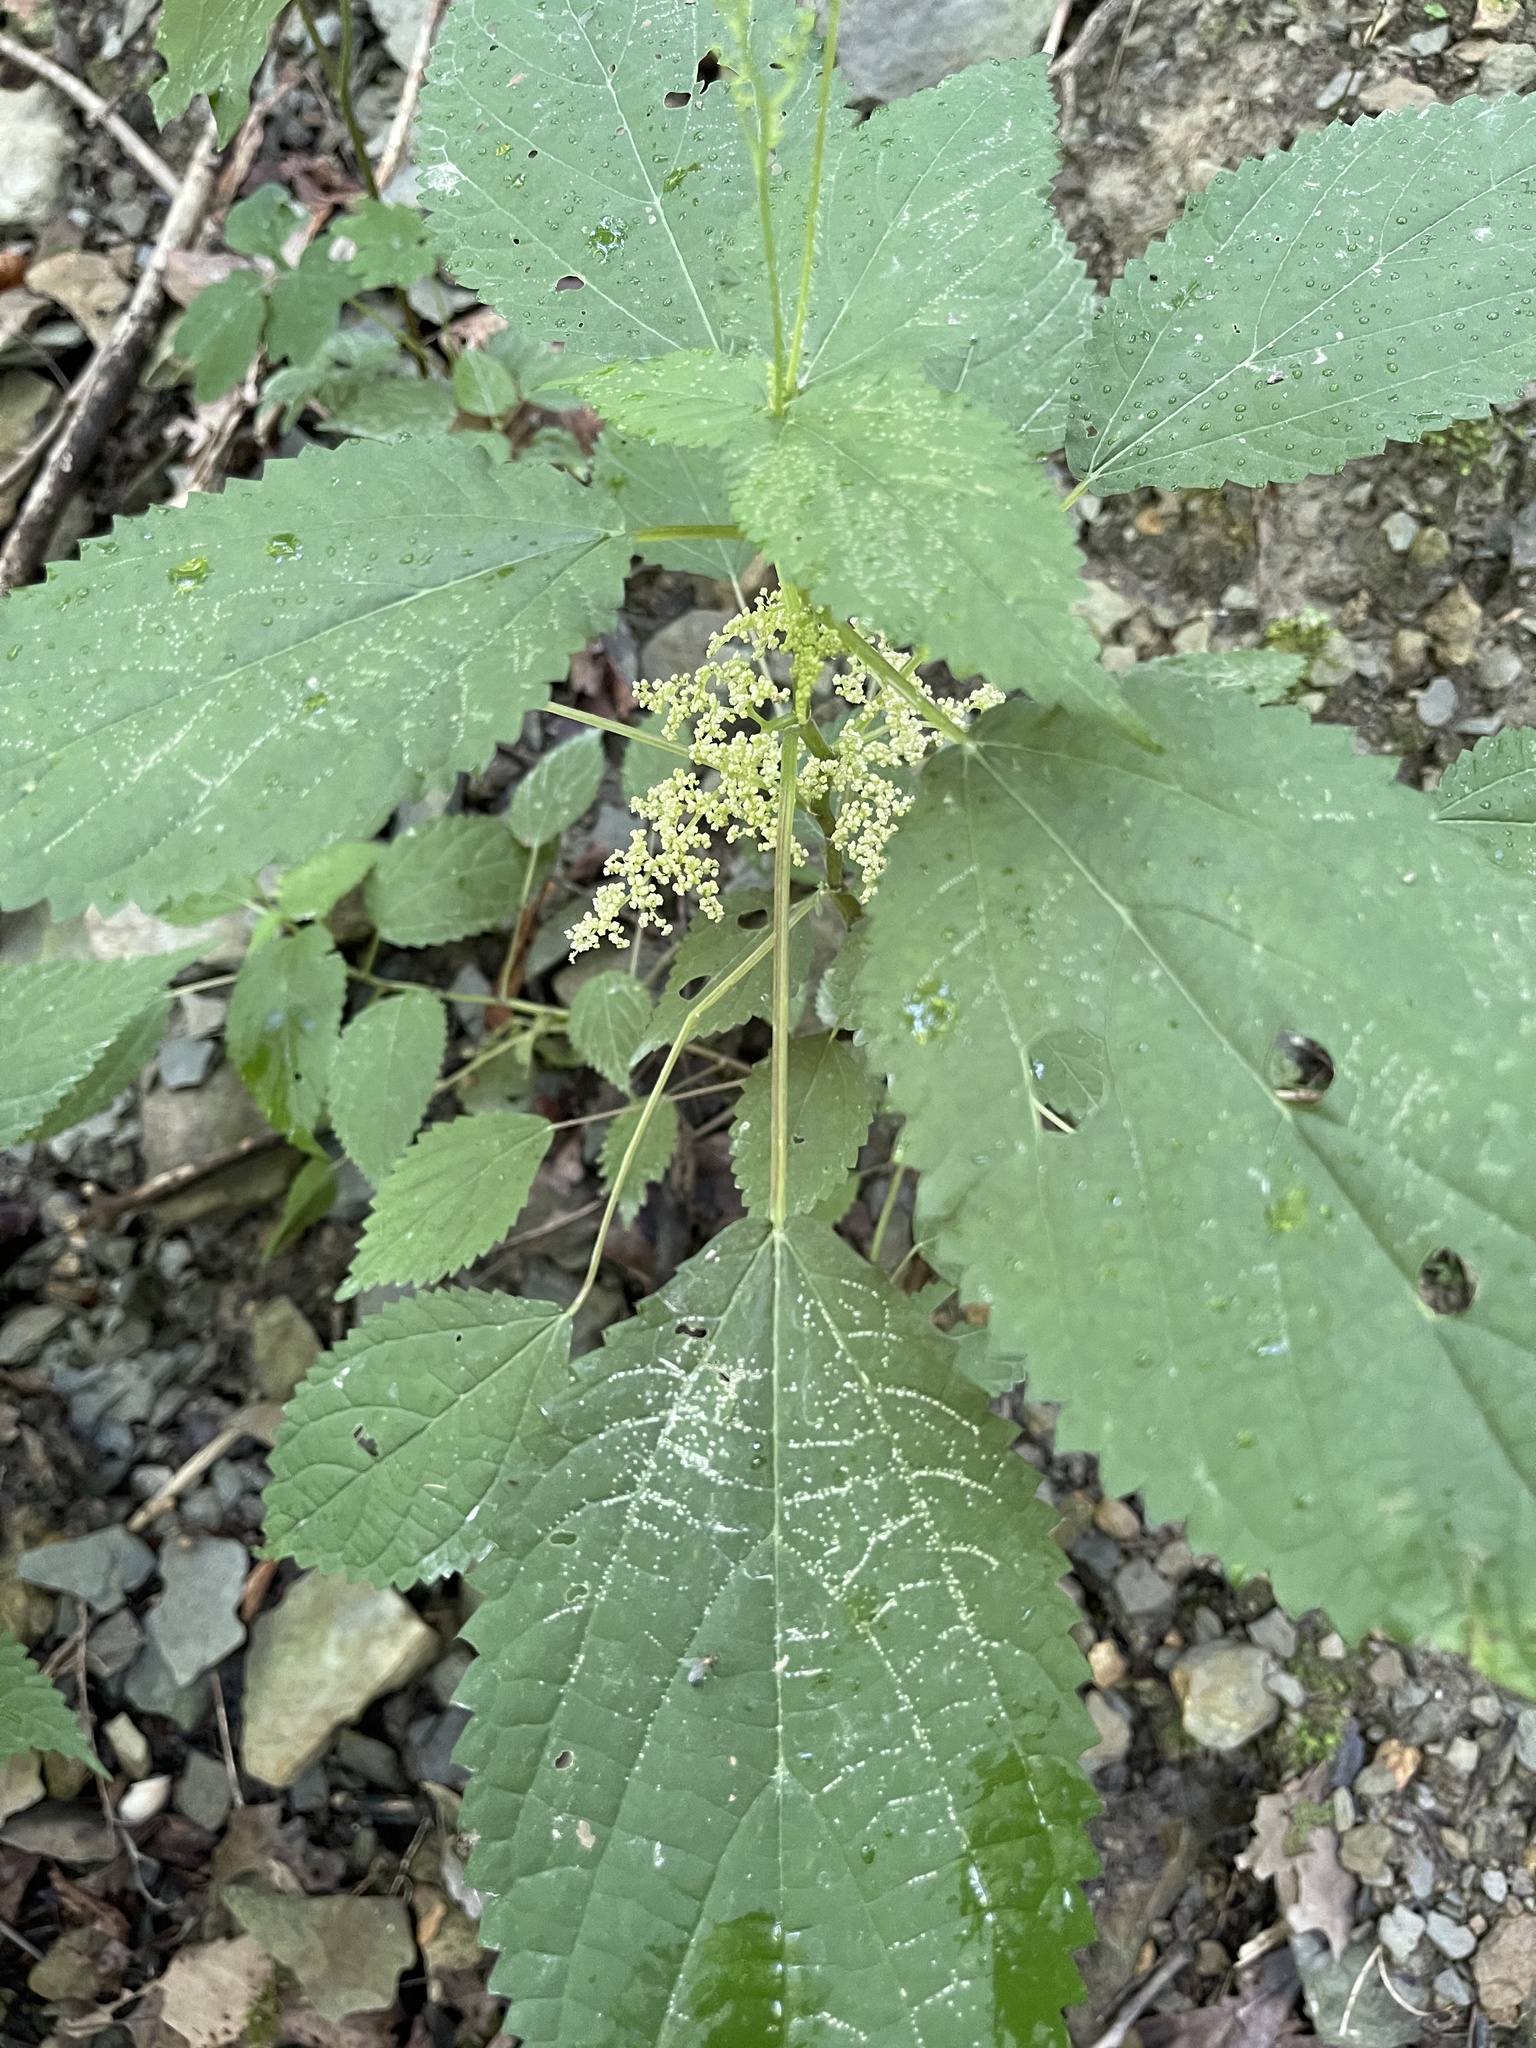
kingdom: Plantae
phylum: Tracheophyta
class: Magnoliopsida
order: Rosales
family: Urticaceae
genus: Laportea
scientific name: Laportea canadensis
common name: Canada nettle
